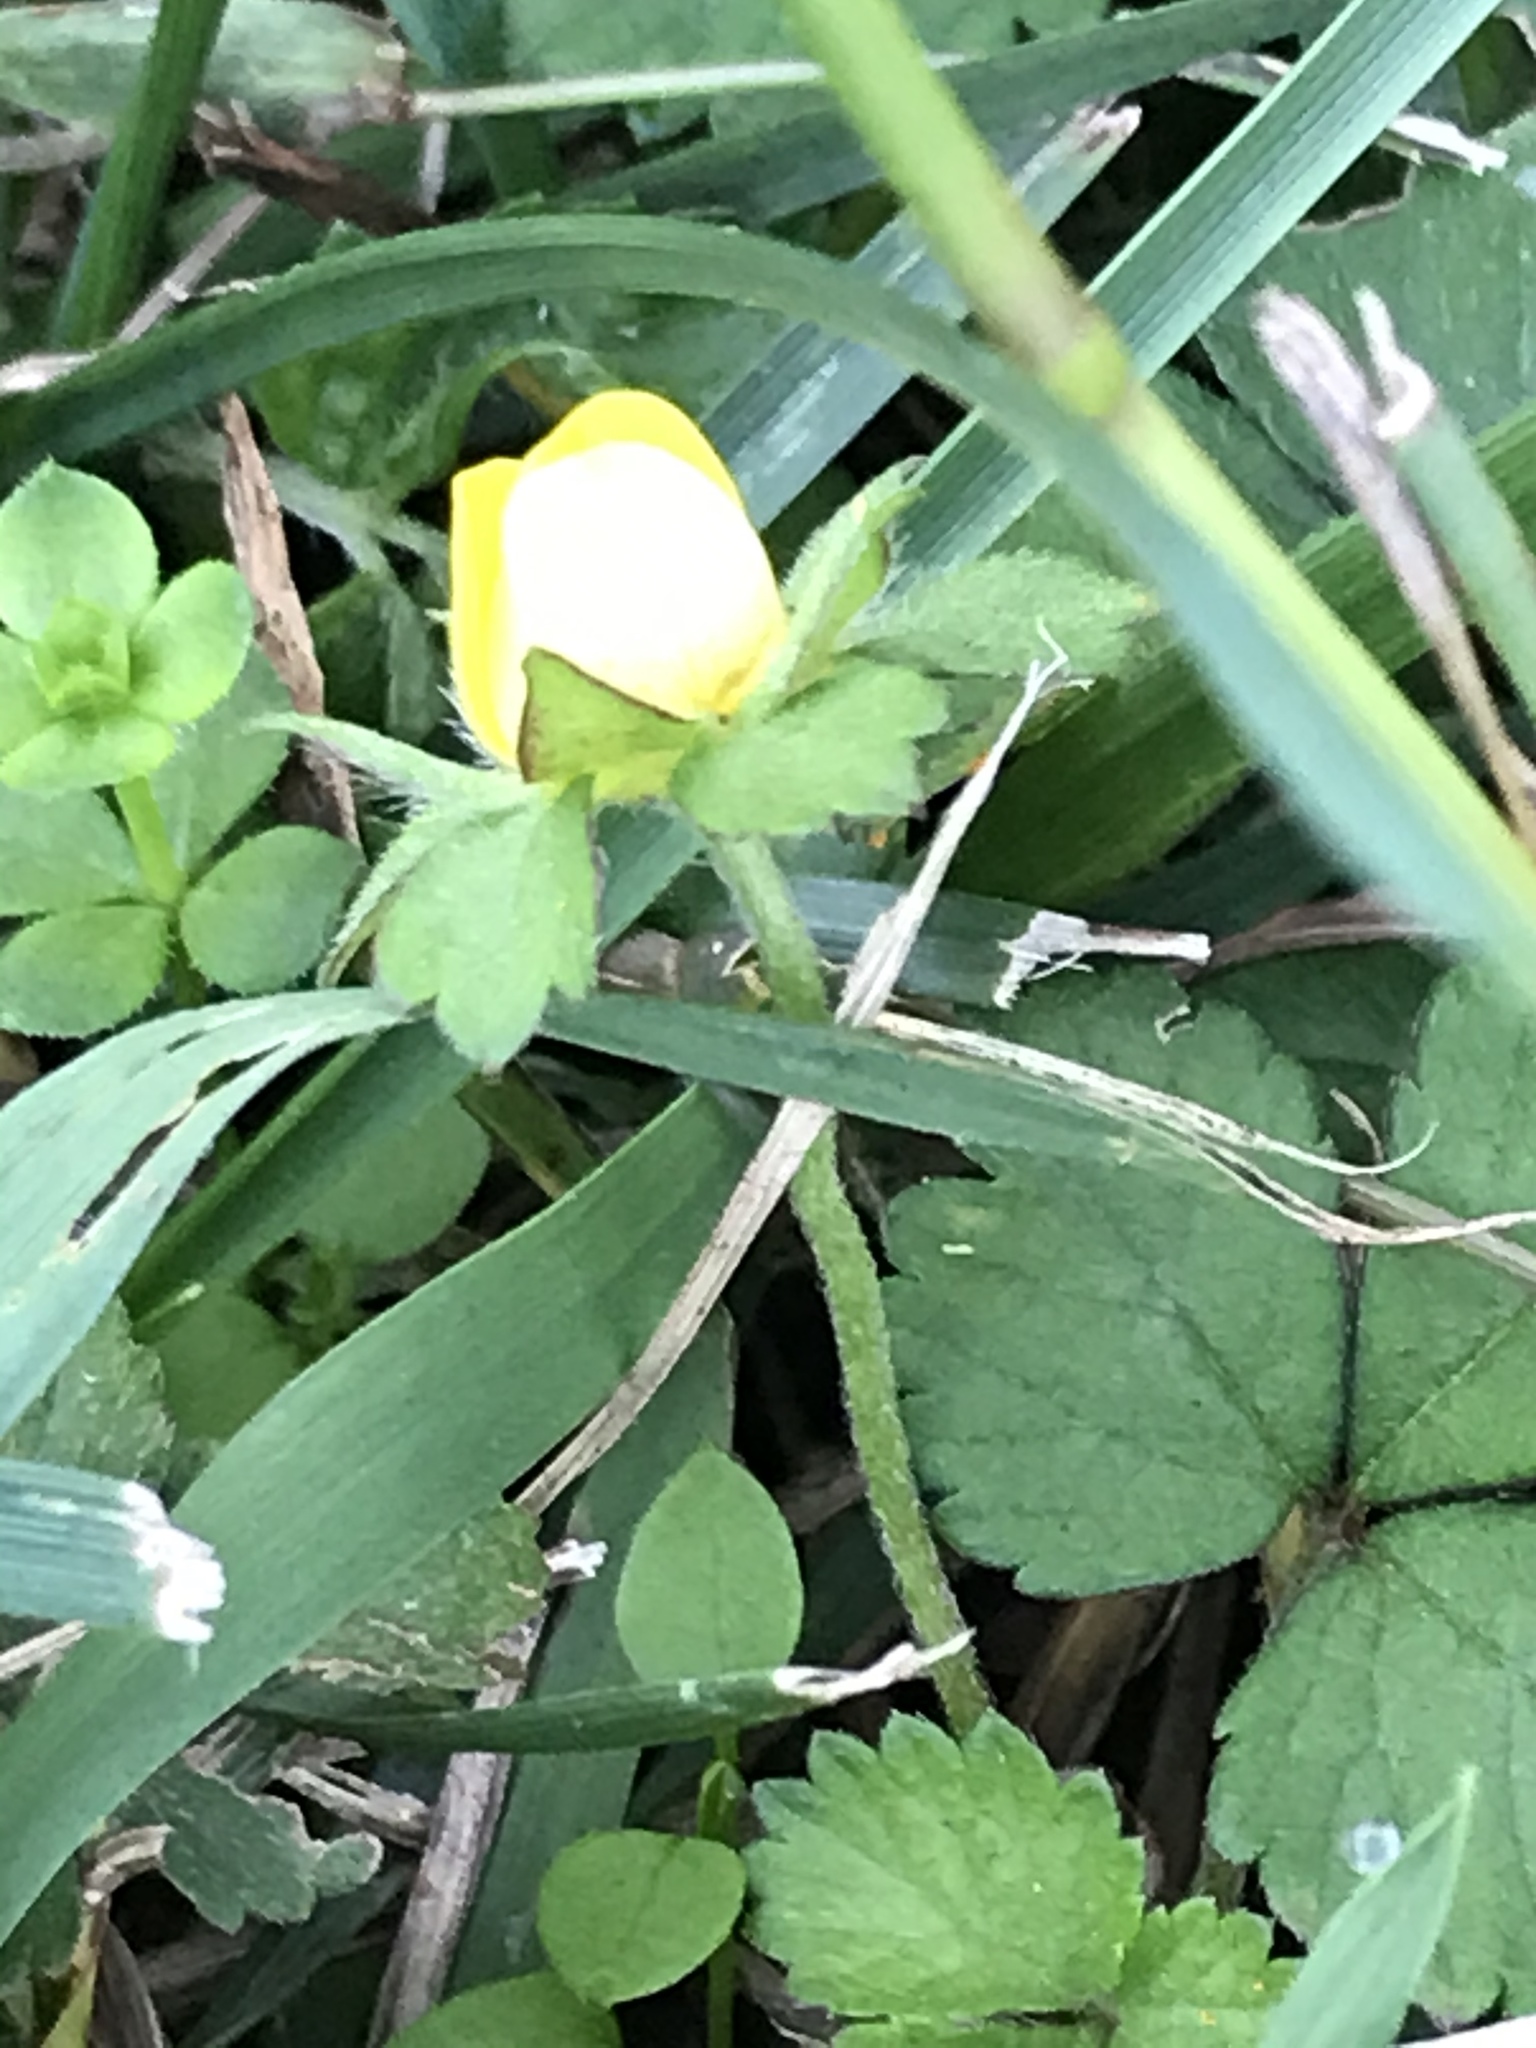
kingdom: Plantae
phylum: Tracheophyta
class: Magnoliopsida
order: Rosales
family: Rosaceae
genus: Potentilla
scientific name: Potentilla indica
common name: Yellow-flowered strawberry
